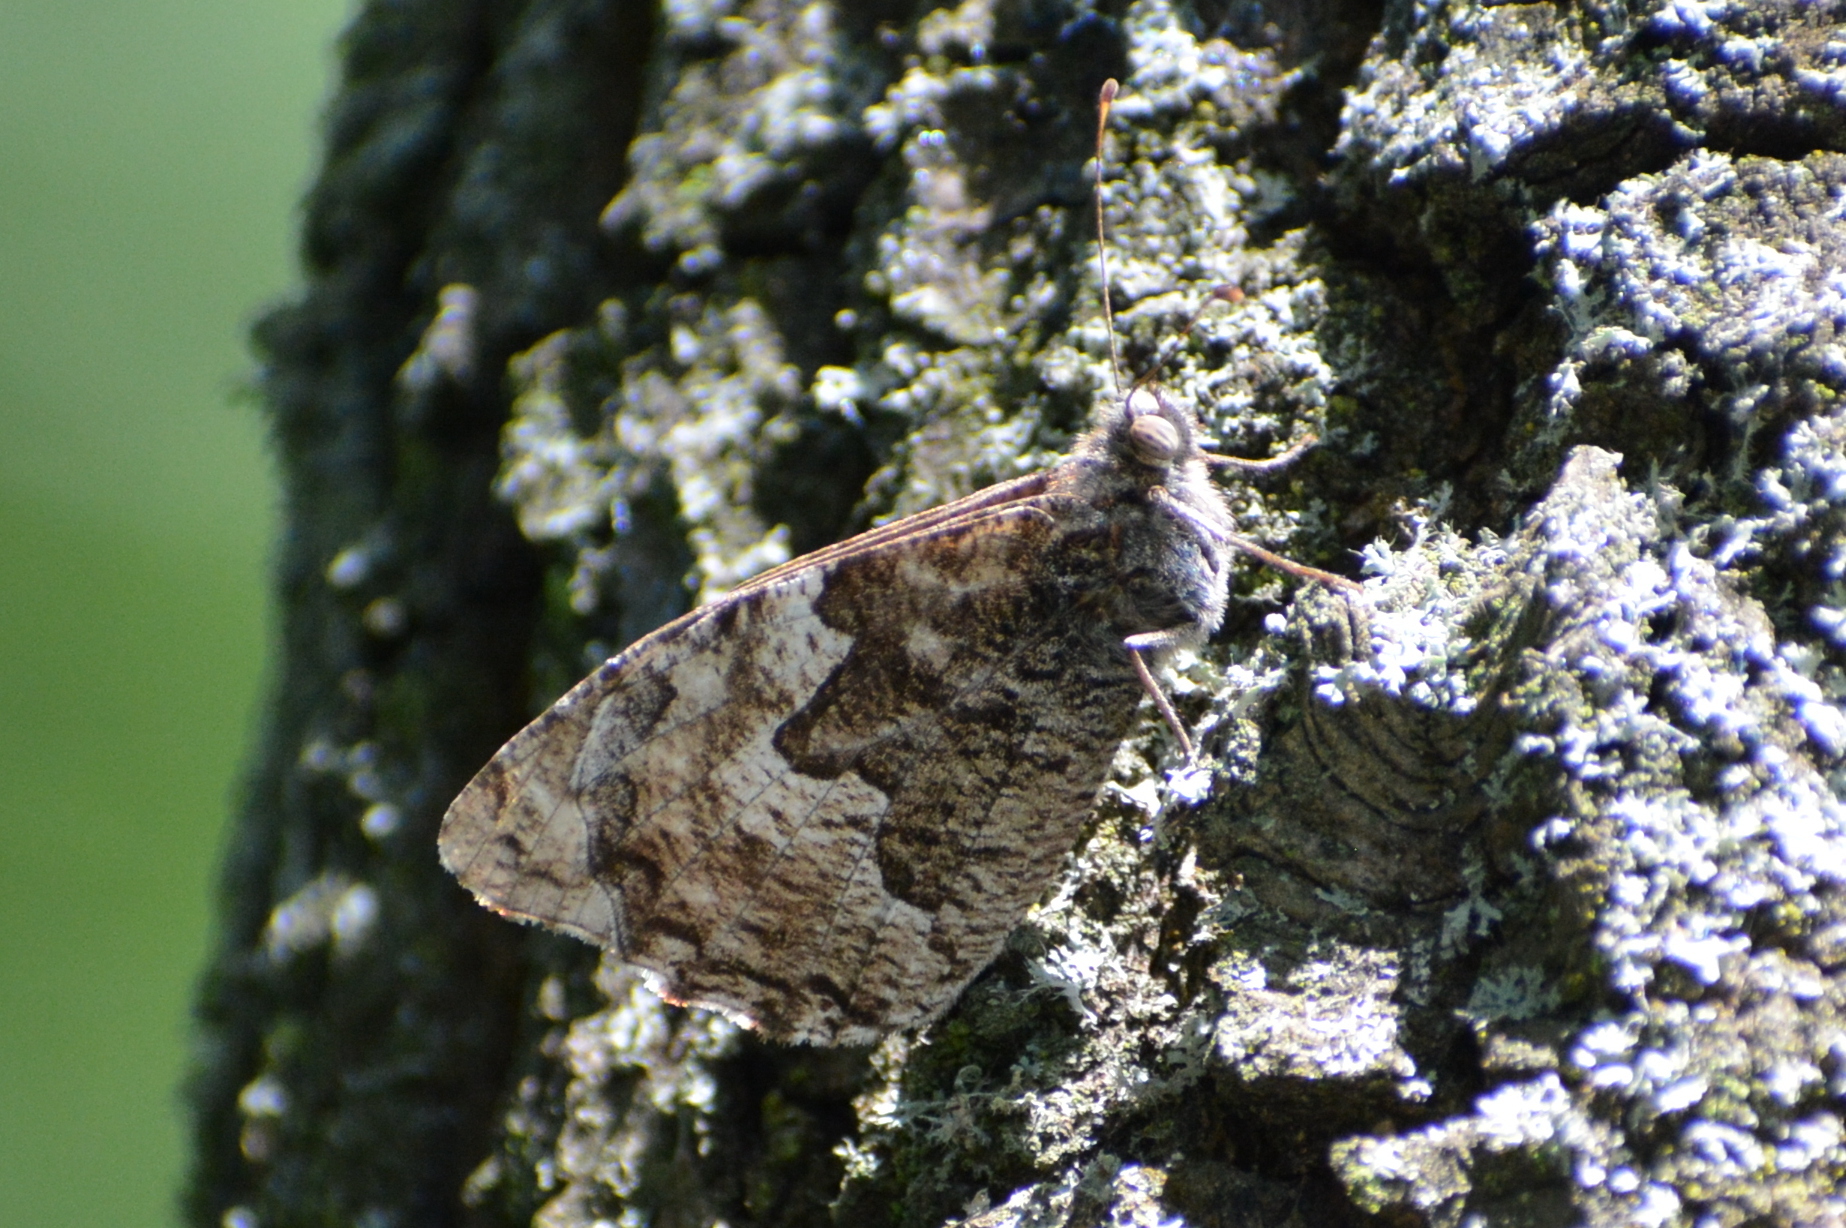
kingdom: Animalia
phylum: Arthropoda
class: Insecta
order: Lepidoptera
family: Nymphalidae
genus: Hipparchia
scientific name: Hipparchia semele
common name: Grayling
